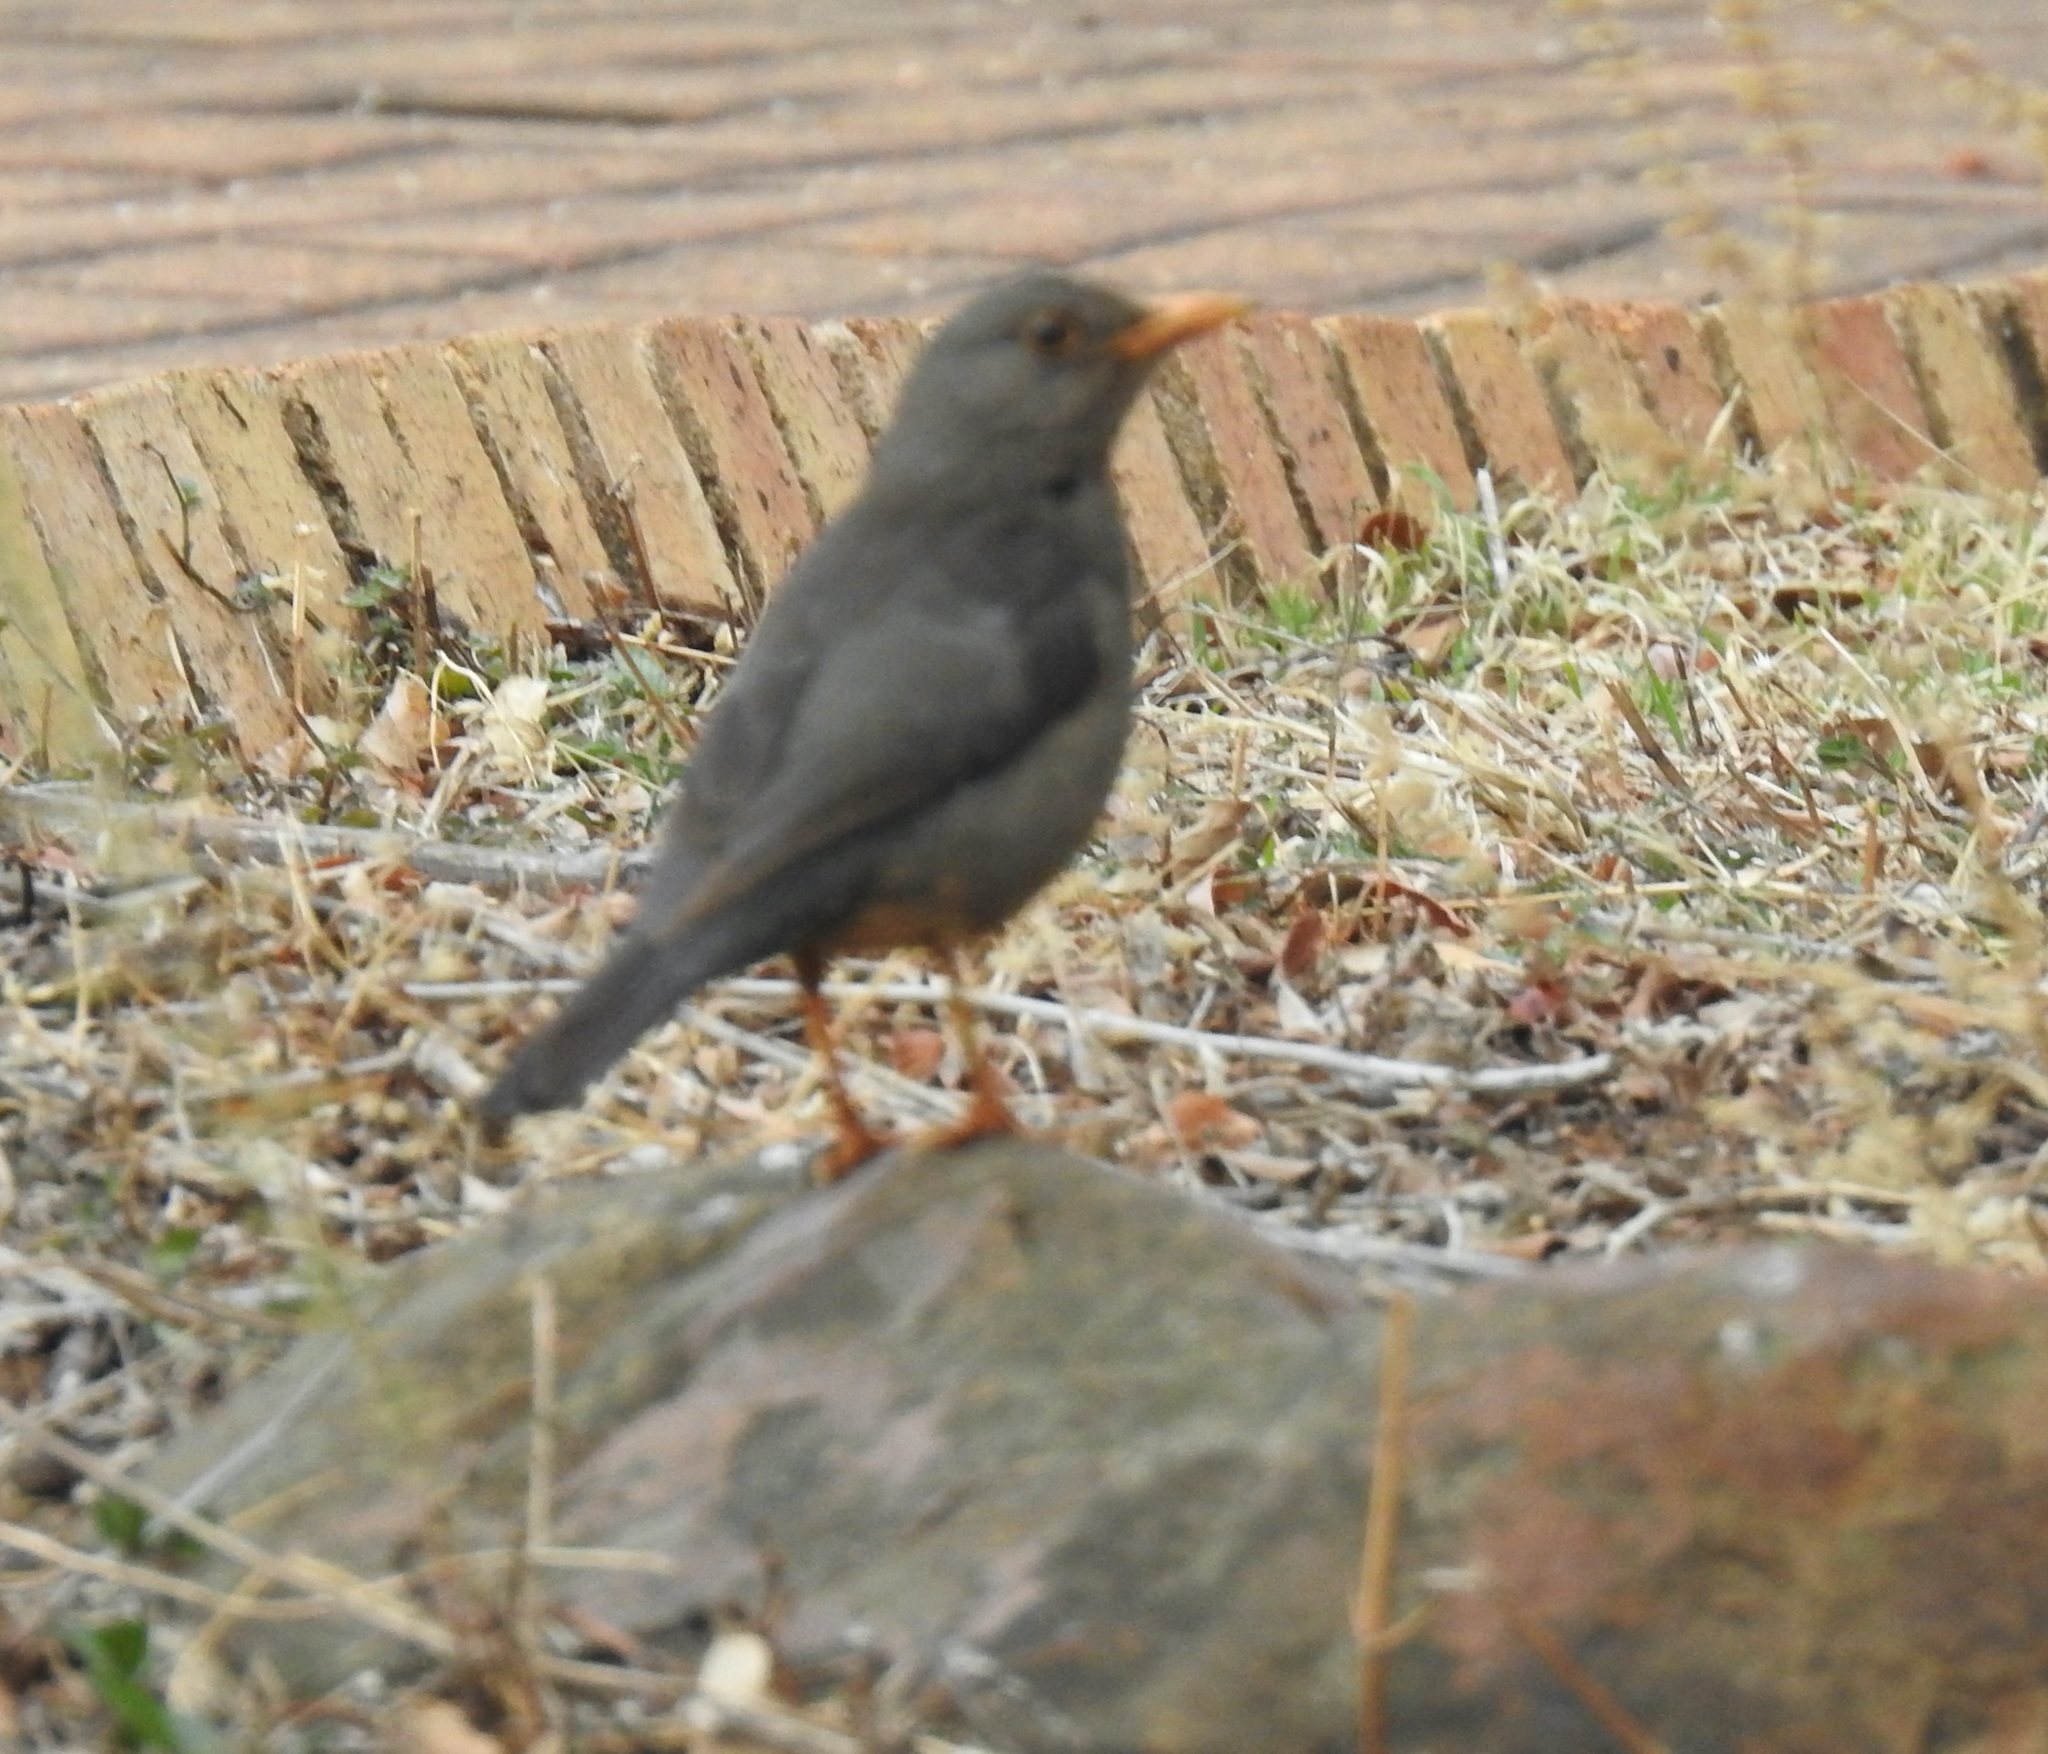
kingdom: Animalia
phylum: Chordata
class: Aves
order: Passeriformes
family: Turdidae
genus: Turdus
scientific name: Turdus smithi
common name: Karoo thrush
